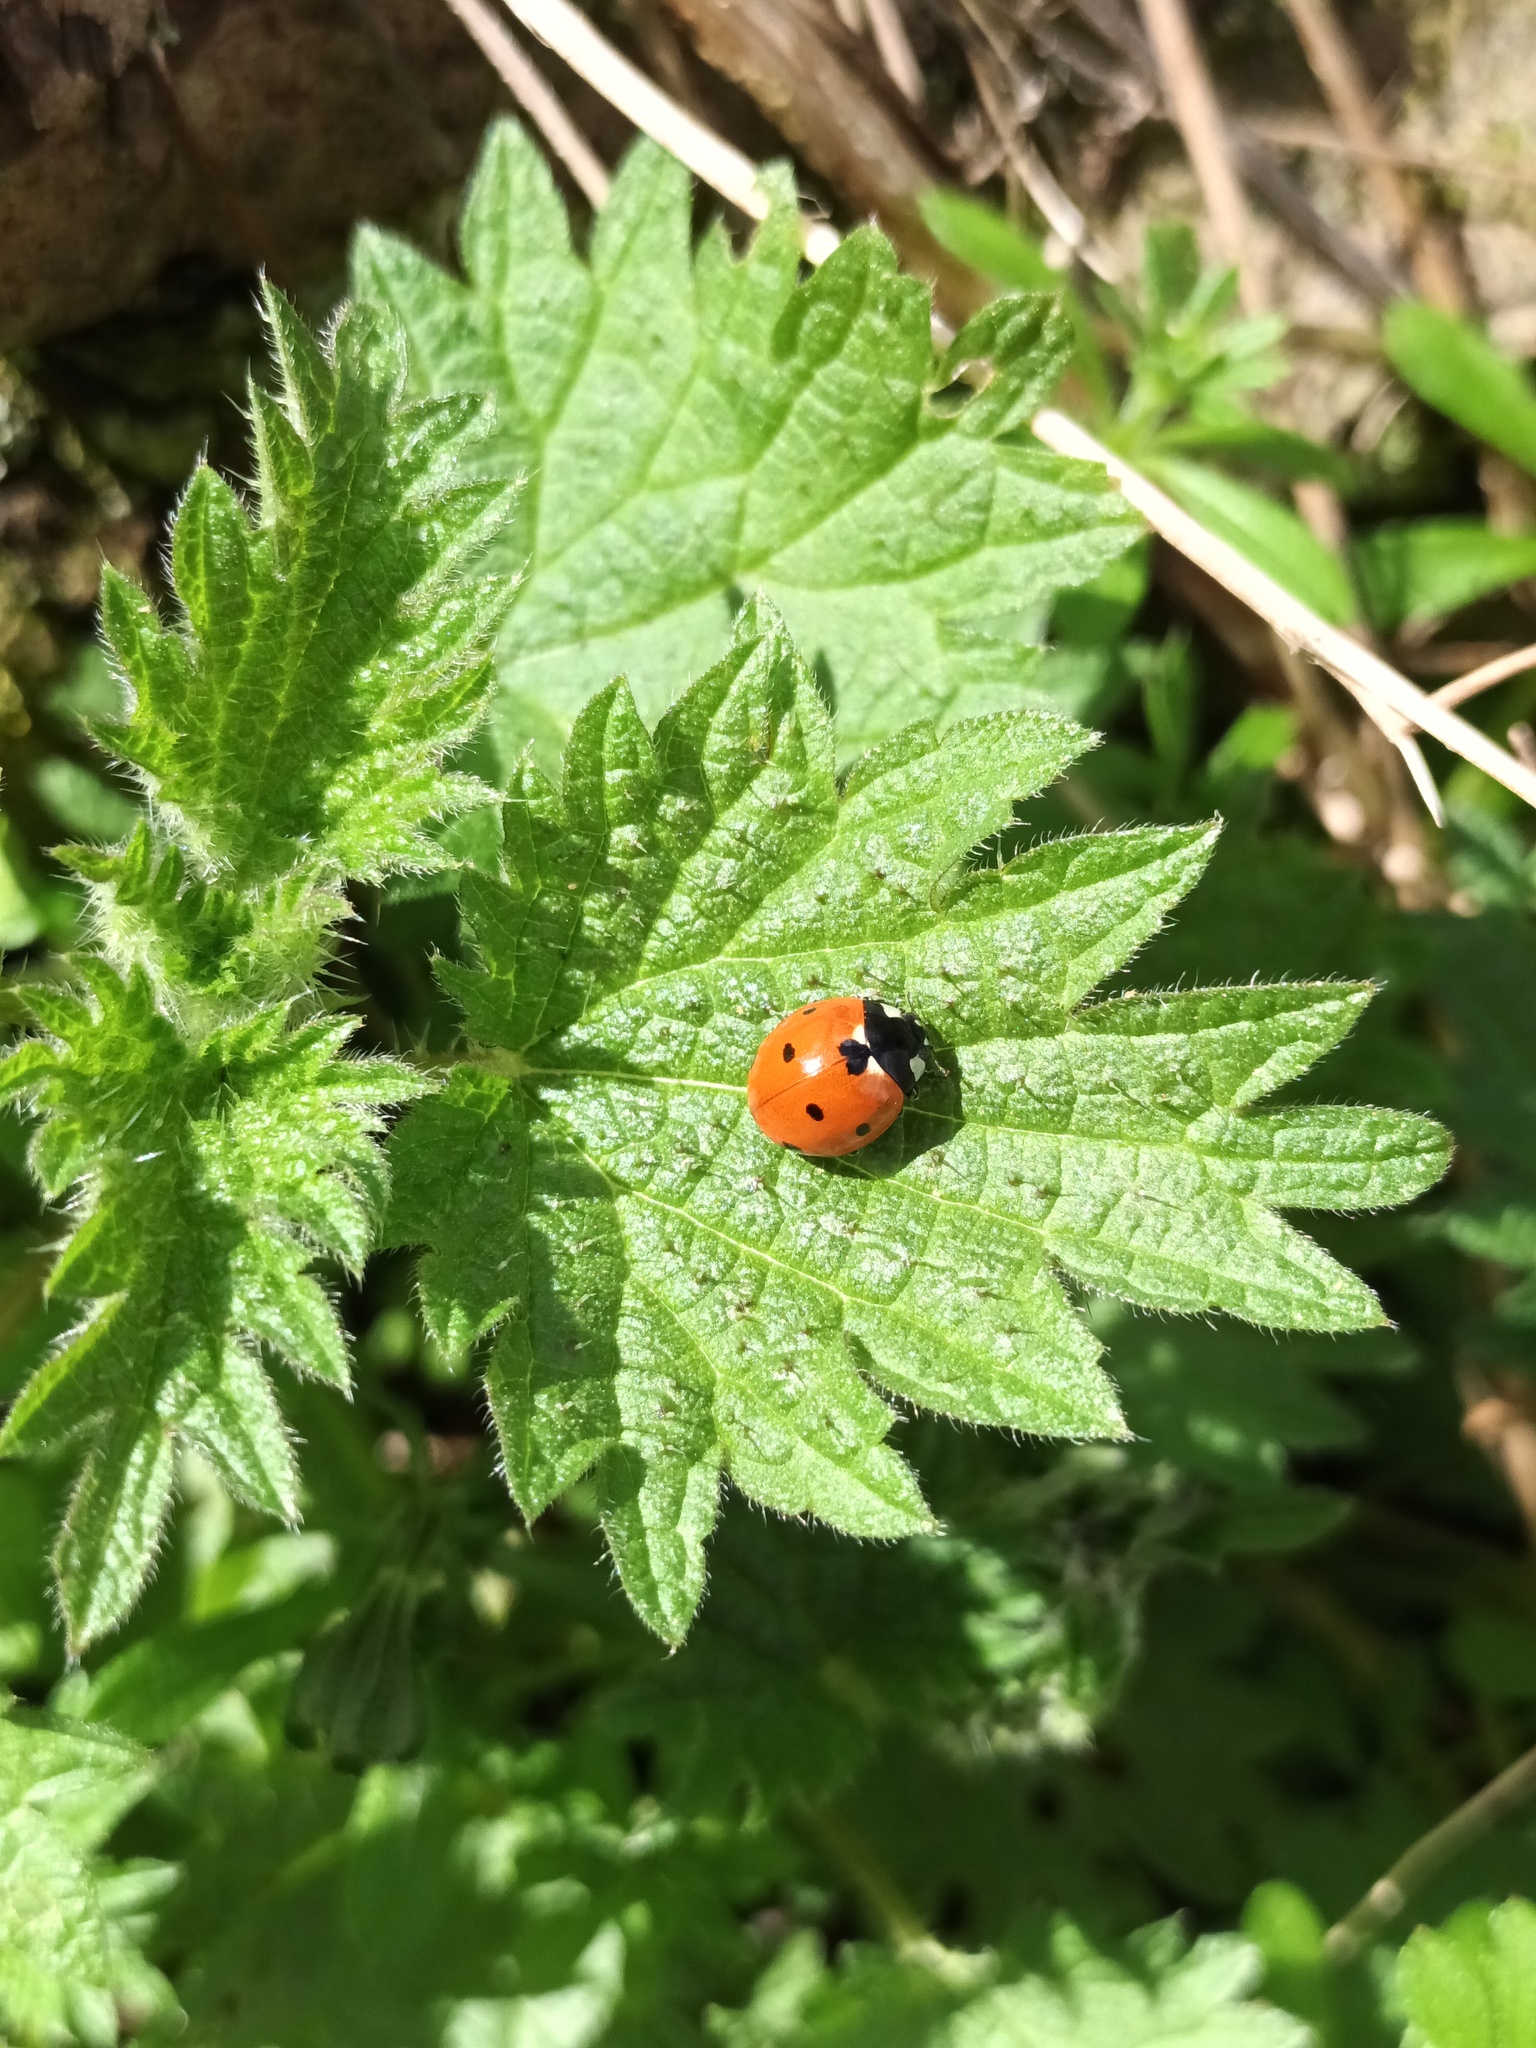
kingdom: Animalia
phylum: Arthropoda
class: Insecta
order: Coleoptera
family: Coccinellidae
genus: Coccinella
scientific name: Coccinella septempunctata
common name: Sevenspotted lady beetle
